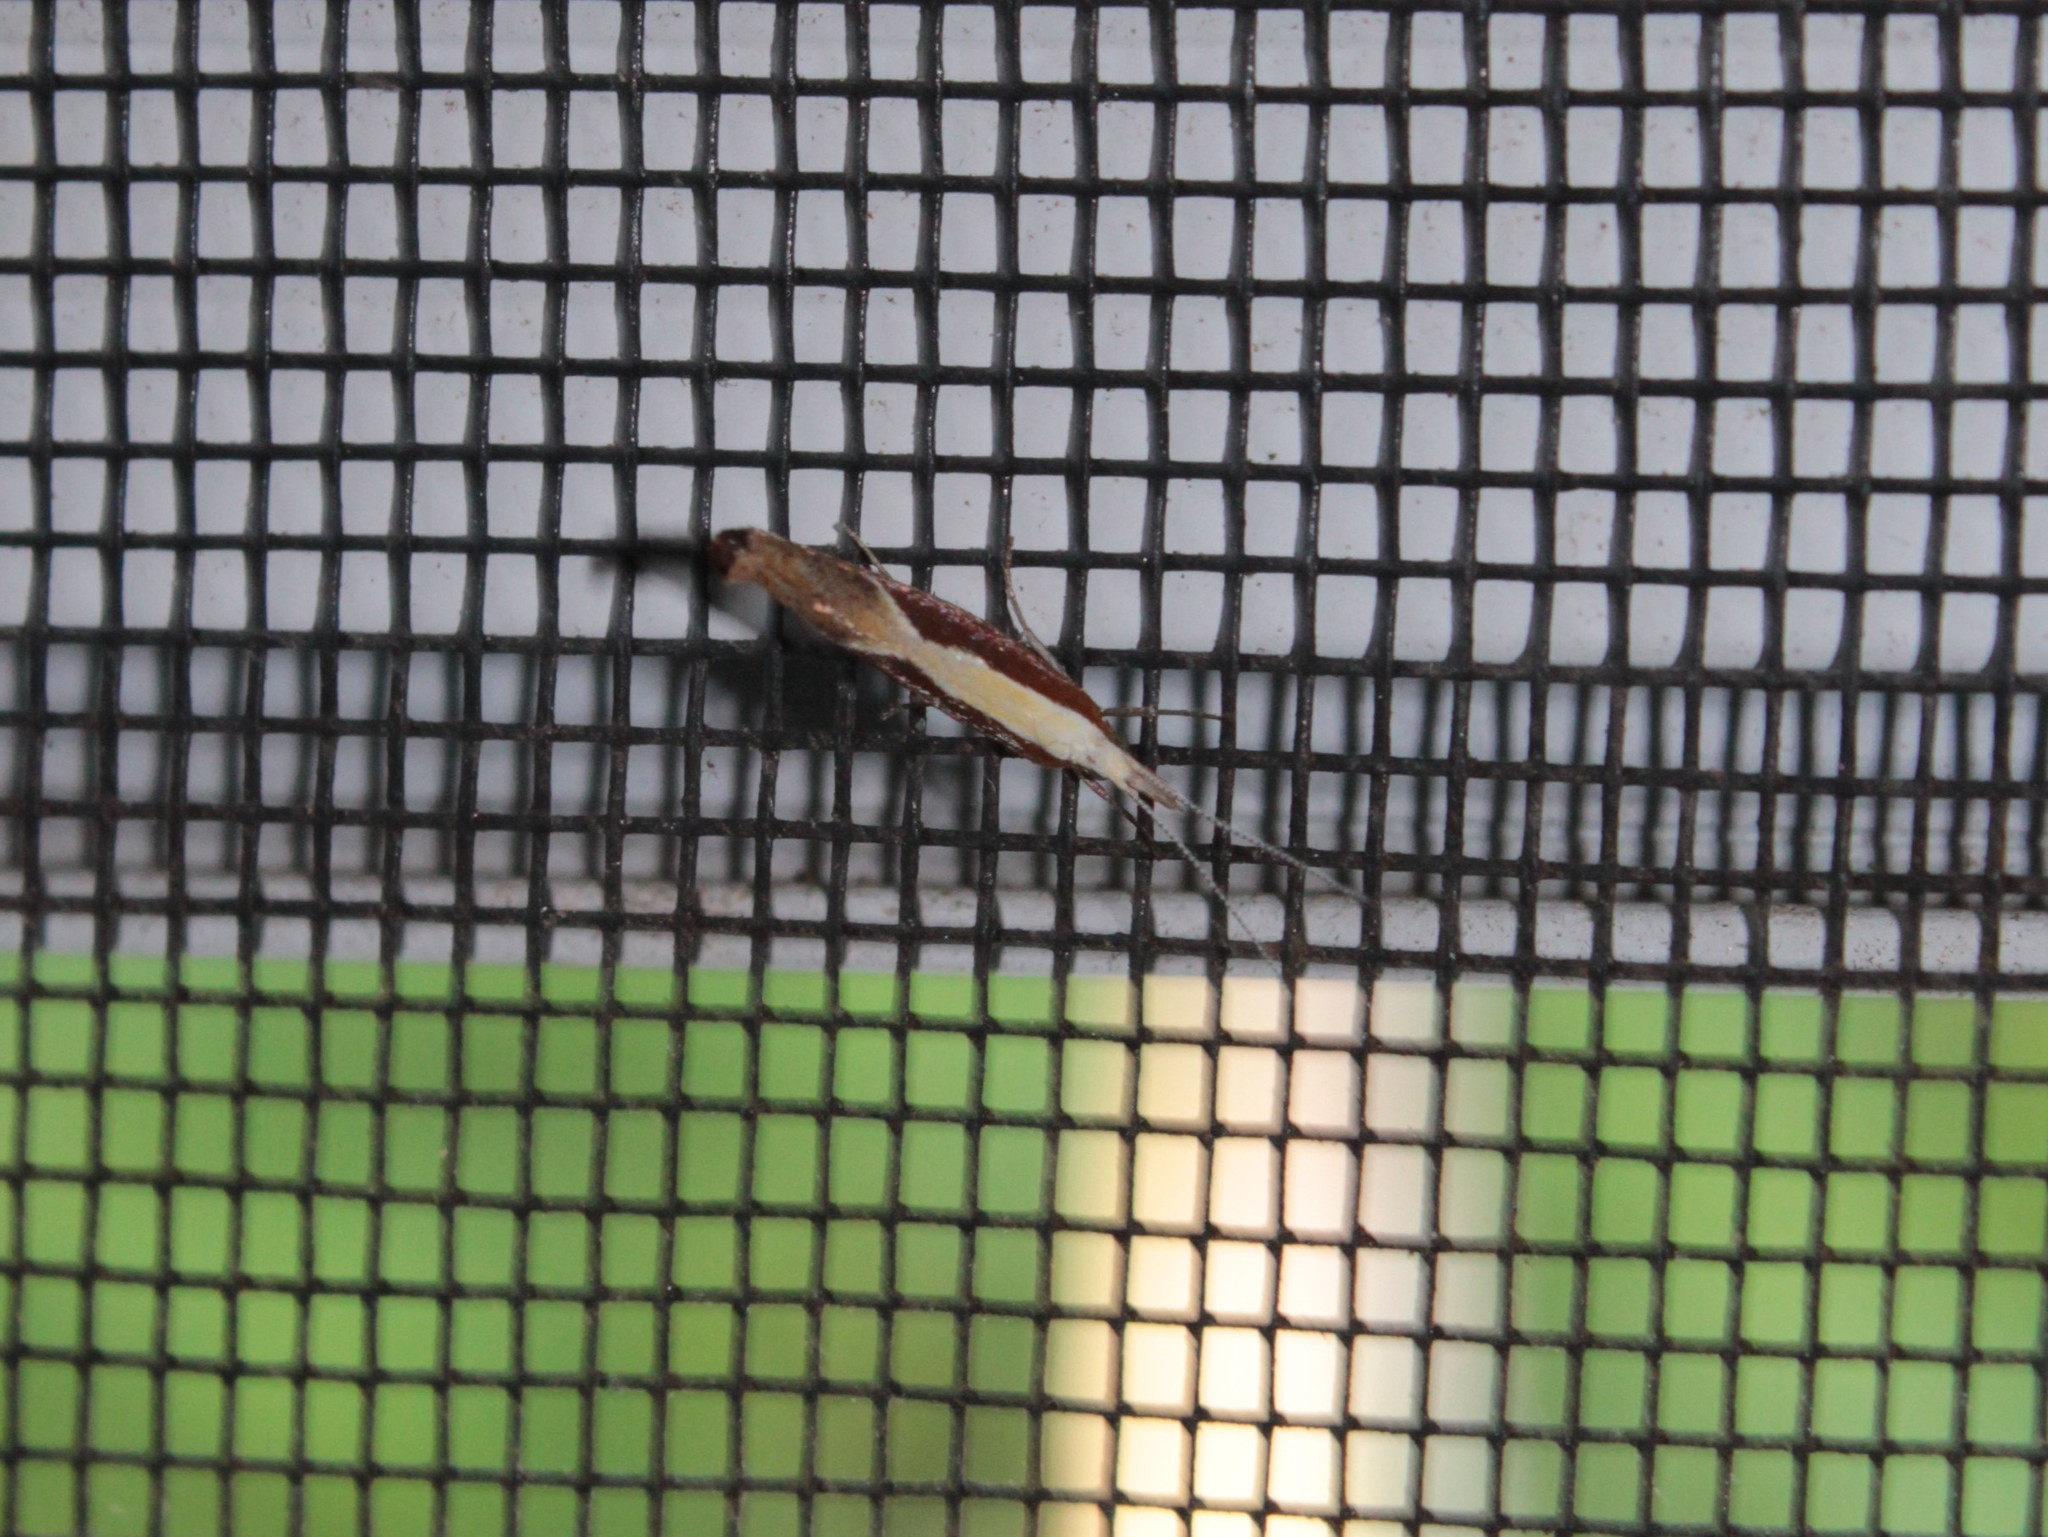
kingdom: Animalia
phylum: Arthropoda
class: Insecta
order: Lepidoptera
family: Ypsolophidae
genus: Ypsolopha
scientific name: Ypsolopha dentella
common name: Honeysuckle moth
